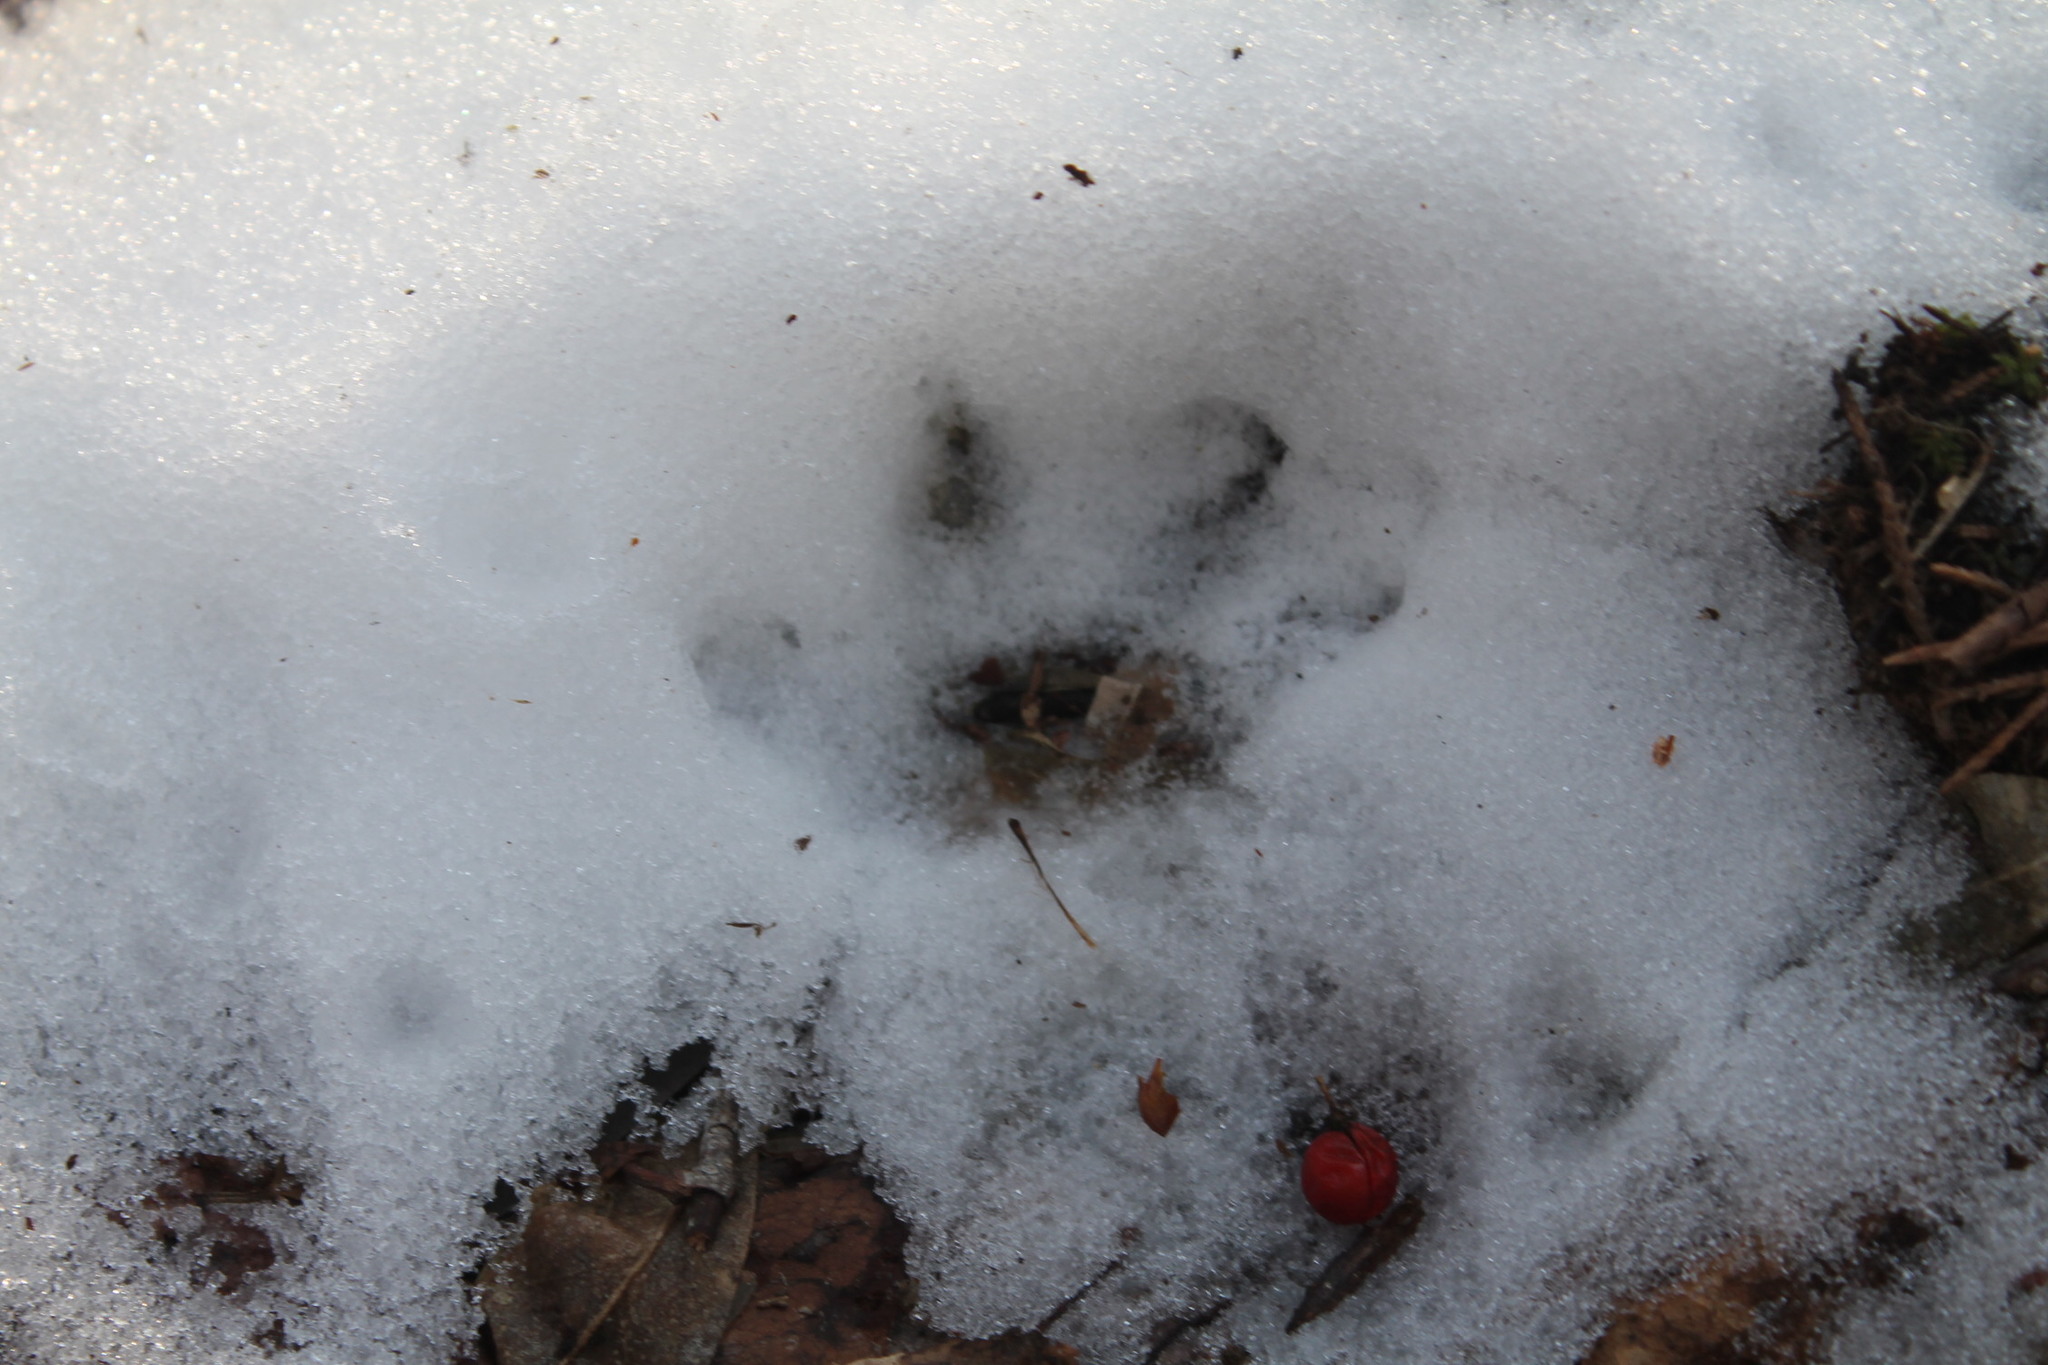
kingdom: Animalia
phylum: Chordata
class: Mammalia
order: Didelphimorphia
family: Didelphidae
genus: Didelphis
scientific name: Didelphis virginiana
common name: Virginia opossum
